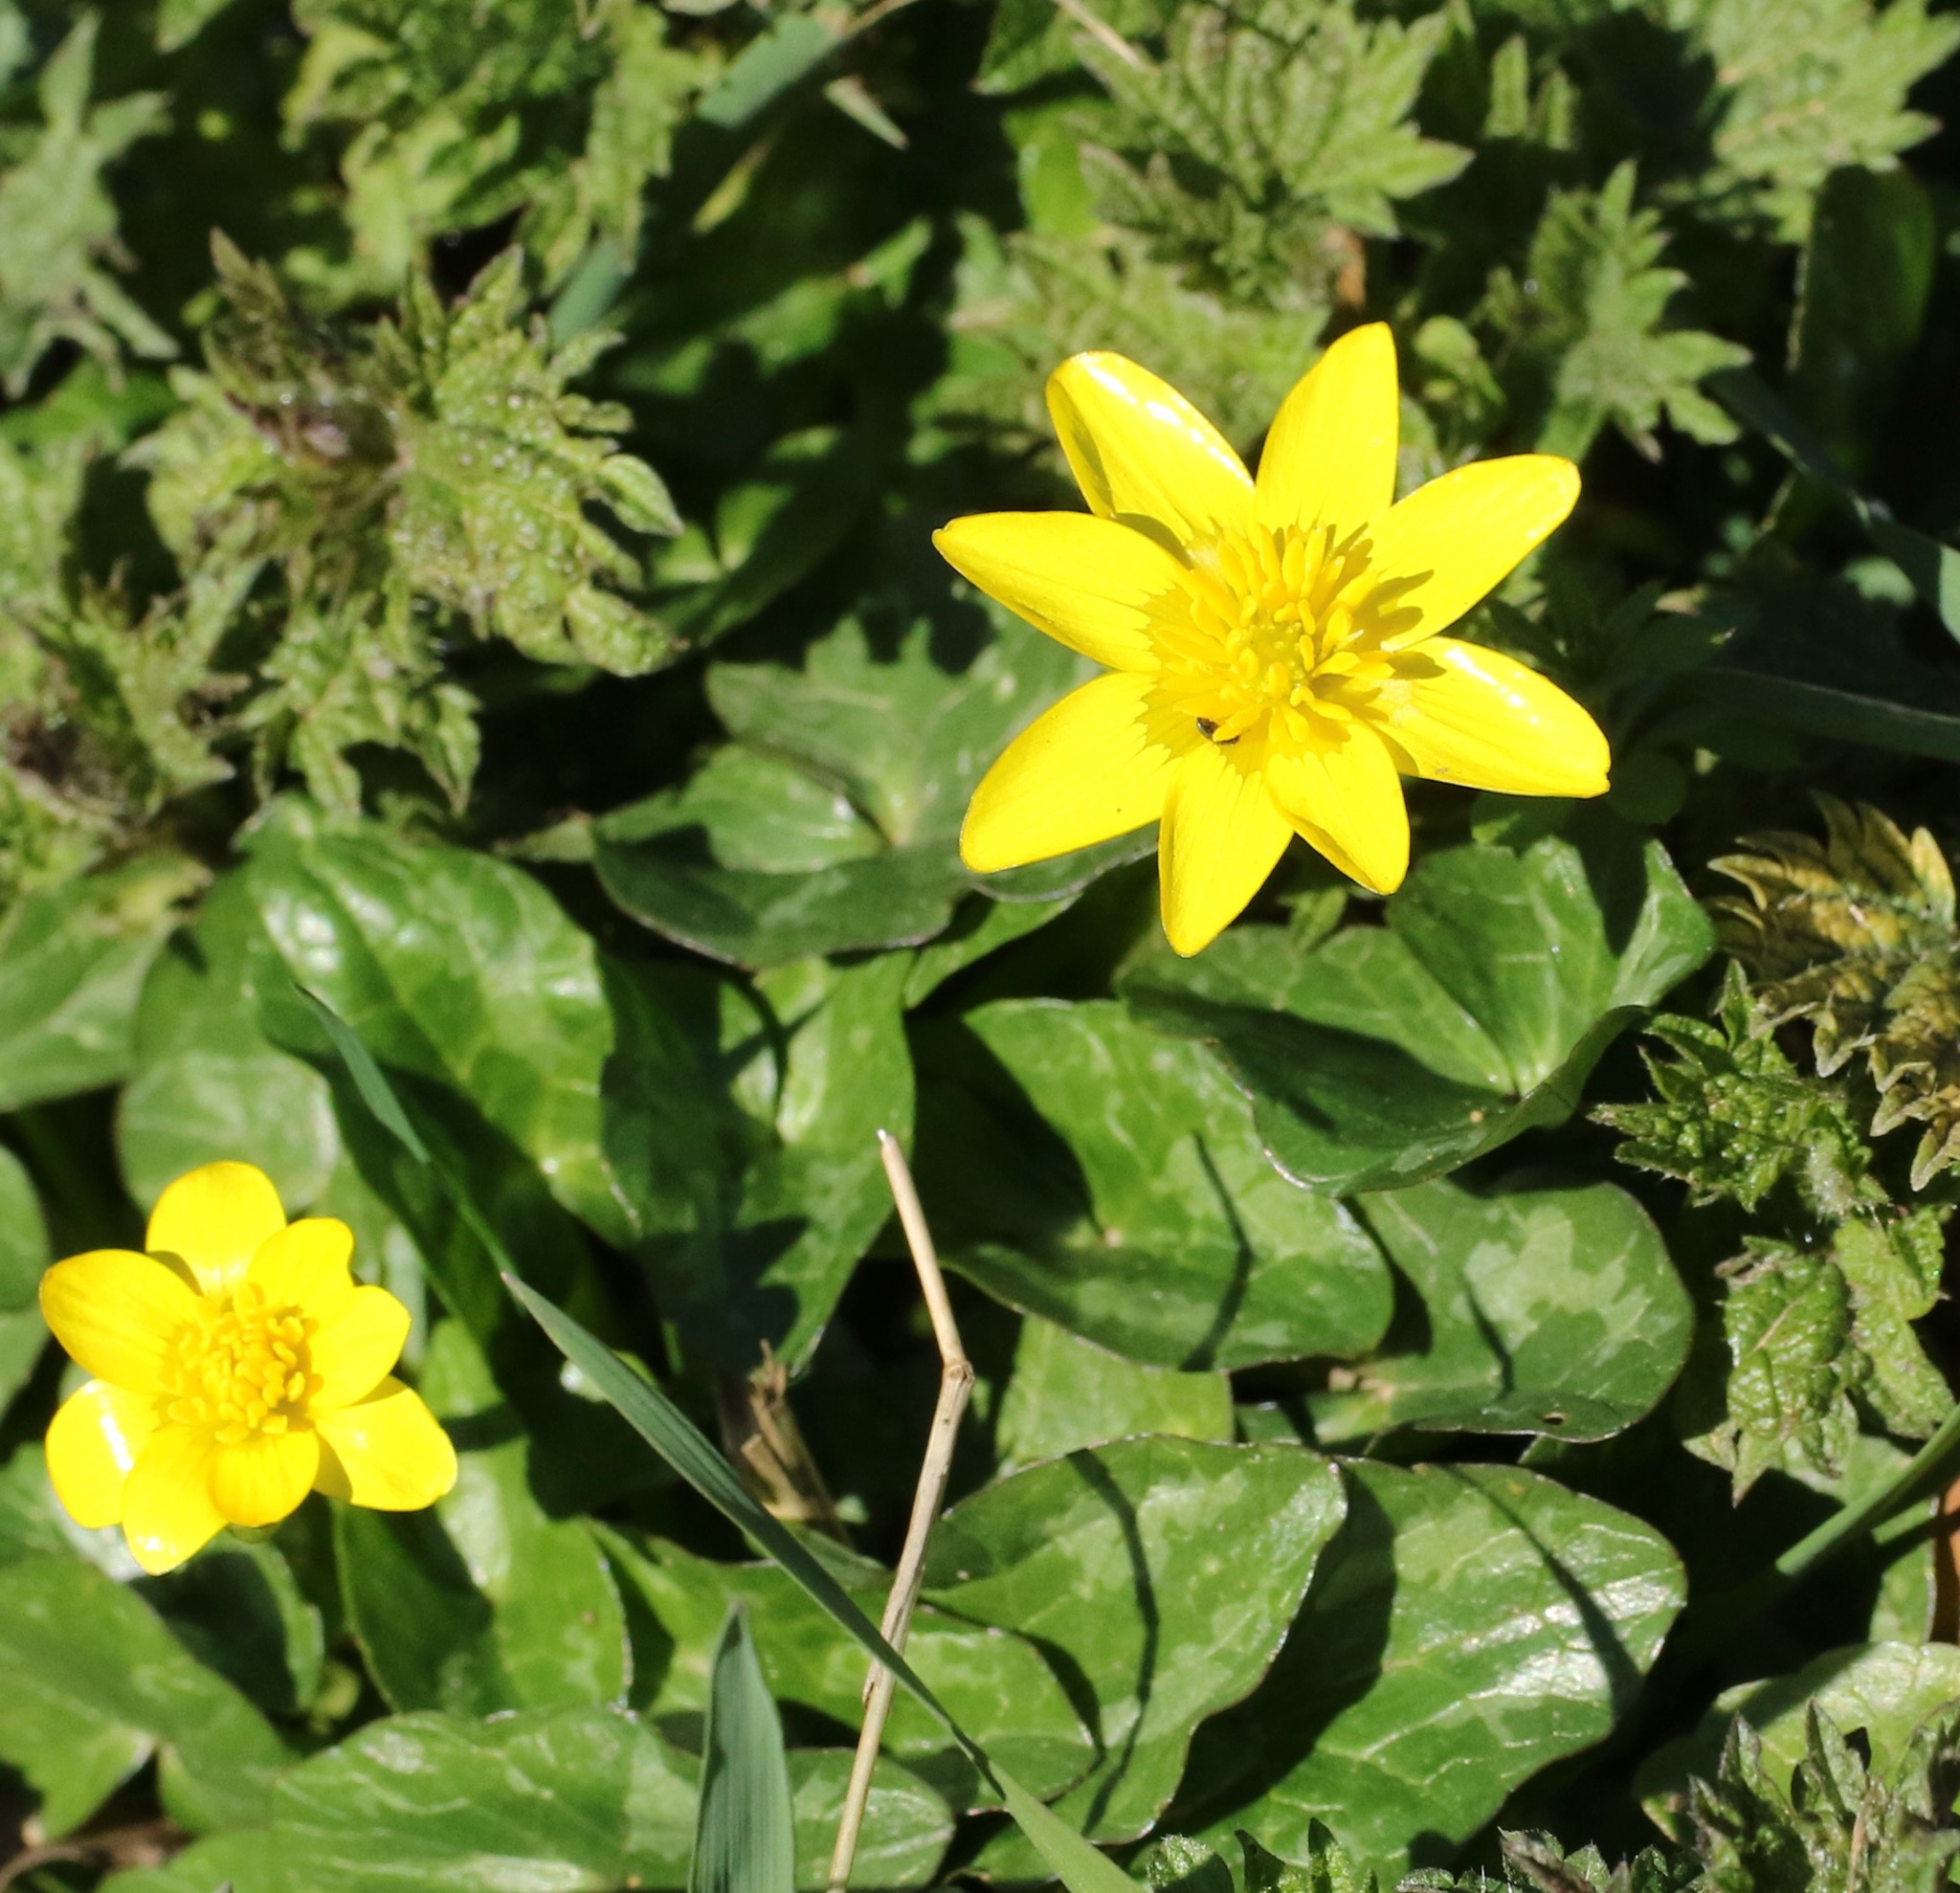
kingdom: Plantae
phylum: Tracheophyta
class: Magnoliopsida
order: Ranunculales
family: Ranunculaceae
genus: Ficaria
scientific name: Ficaria verna
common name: Lesser celandine
